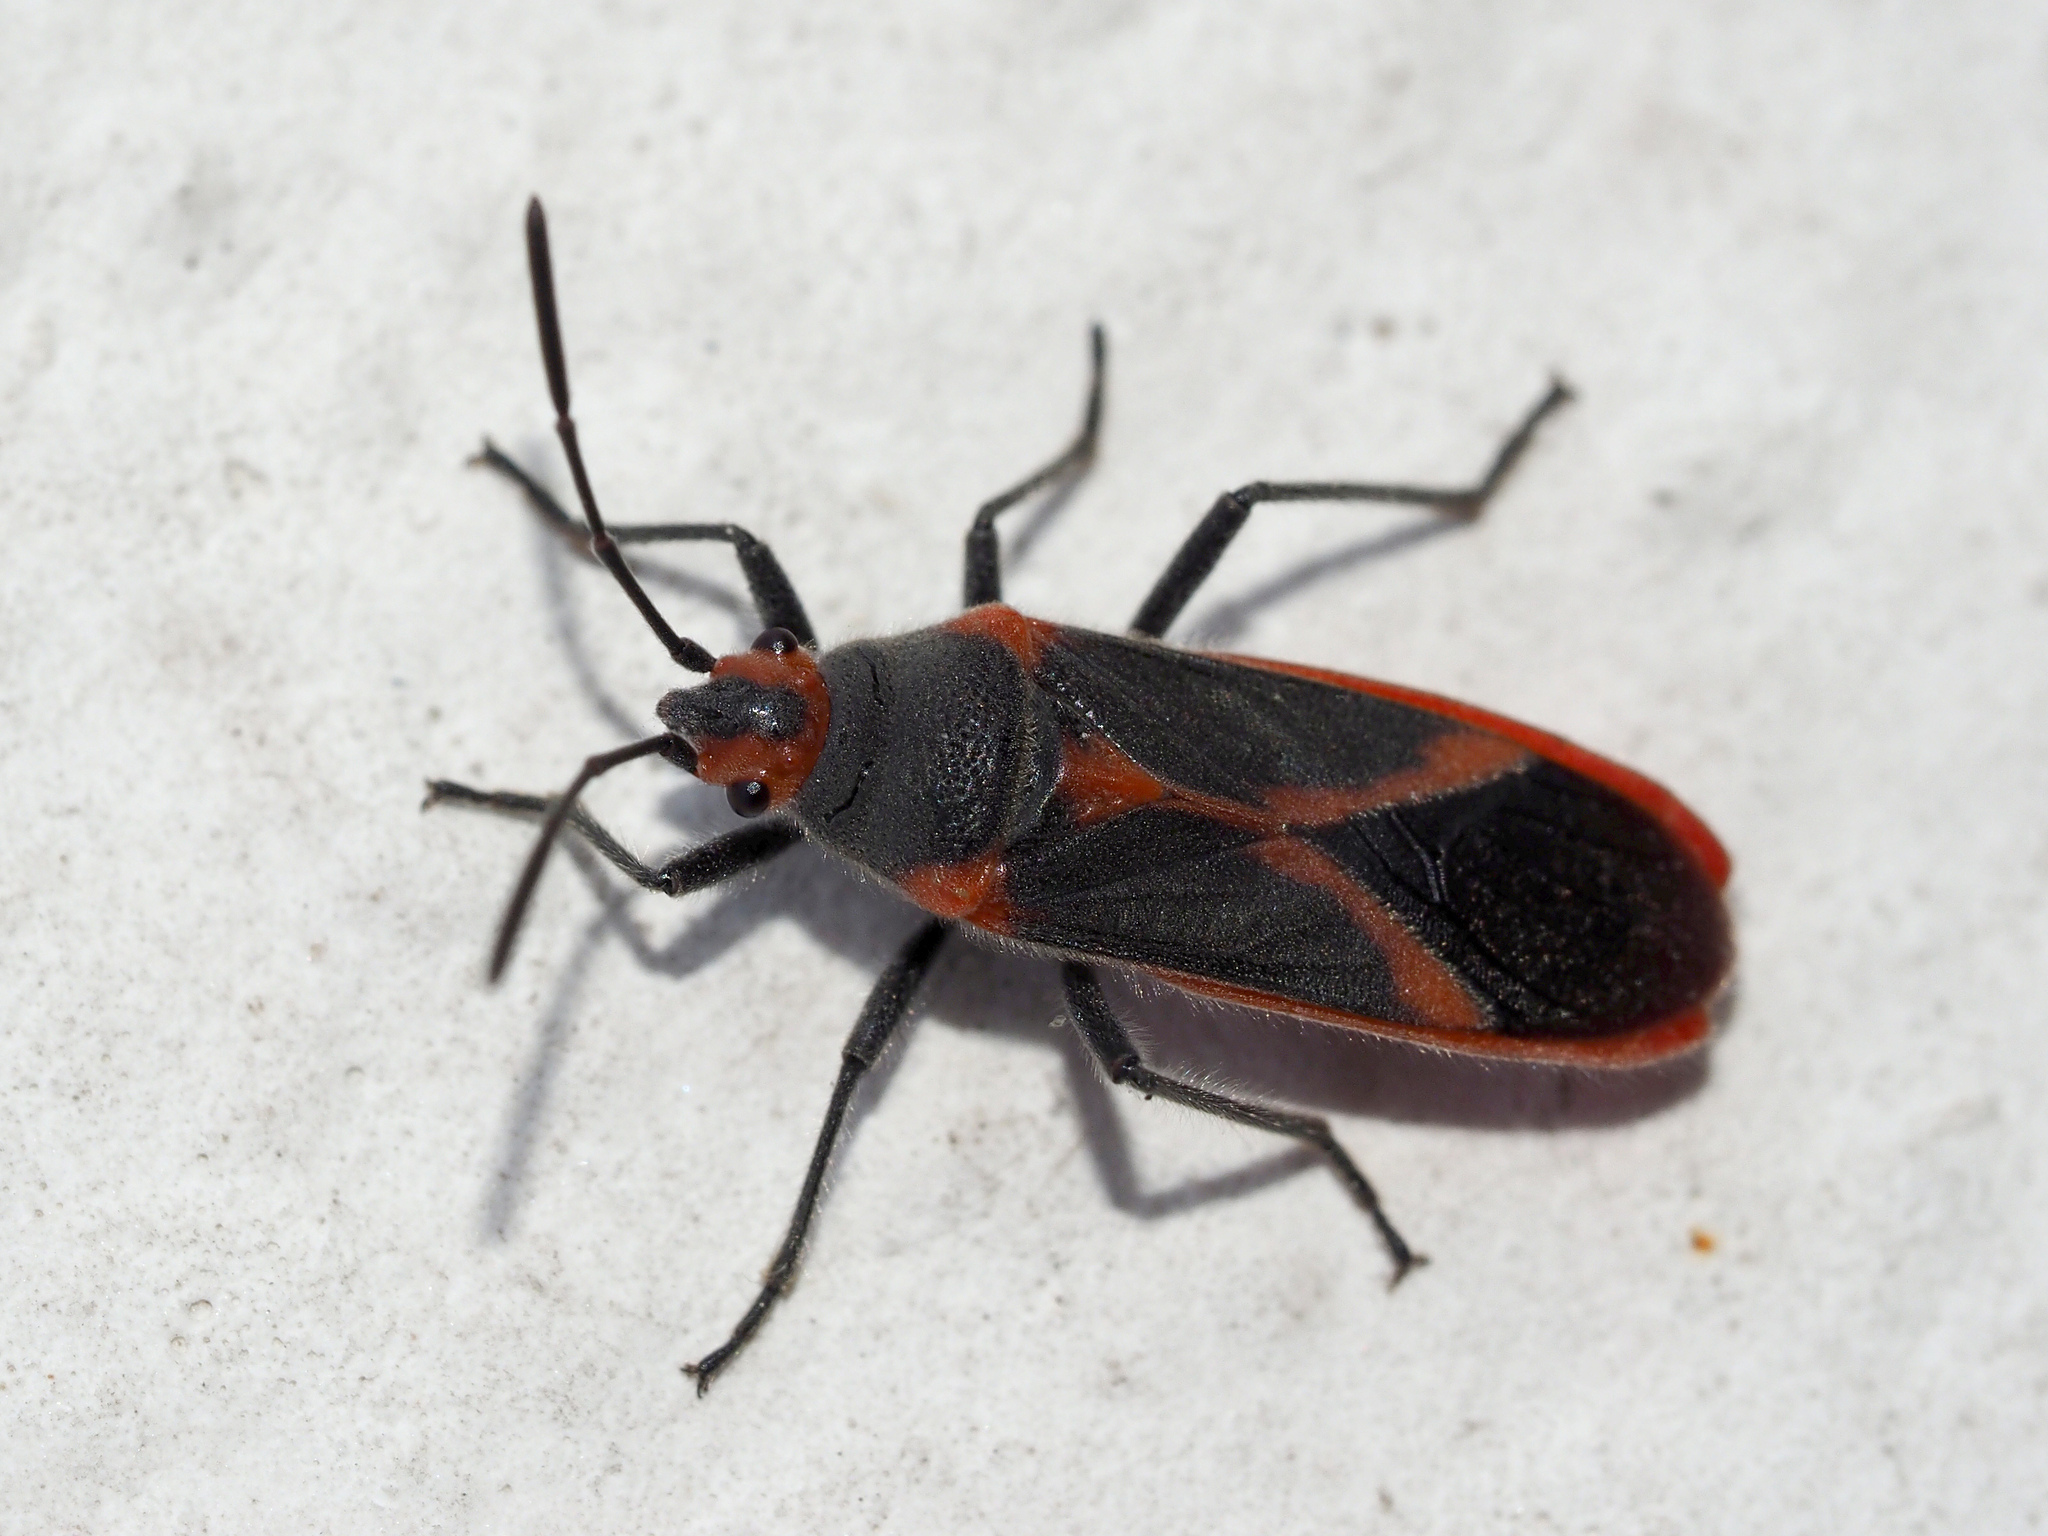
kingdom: Animalia
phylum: Arthropoda
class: Insecta
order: Hemiptera
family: Lygaeidae
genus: Caenocoris
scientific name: Caenocoris nerii
